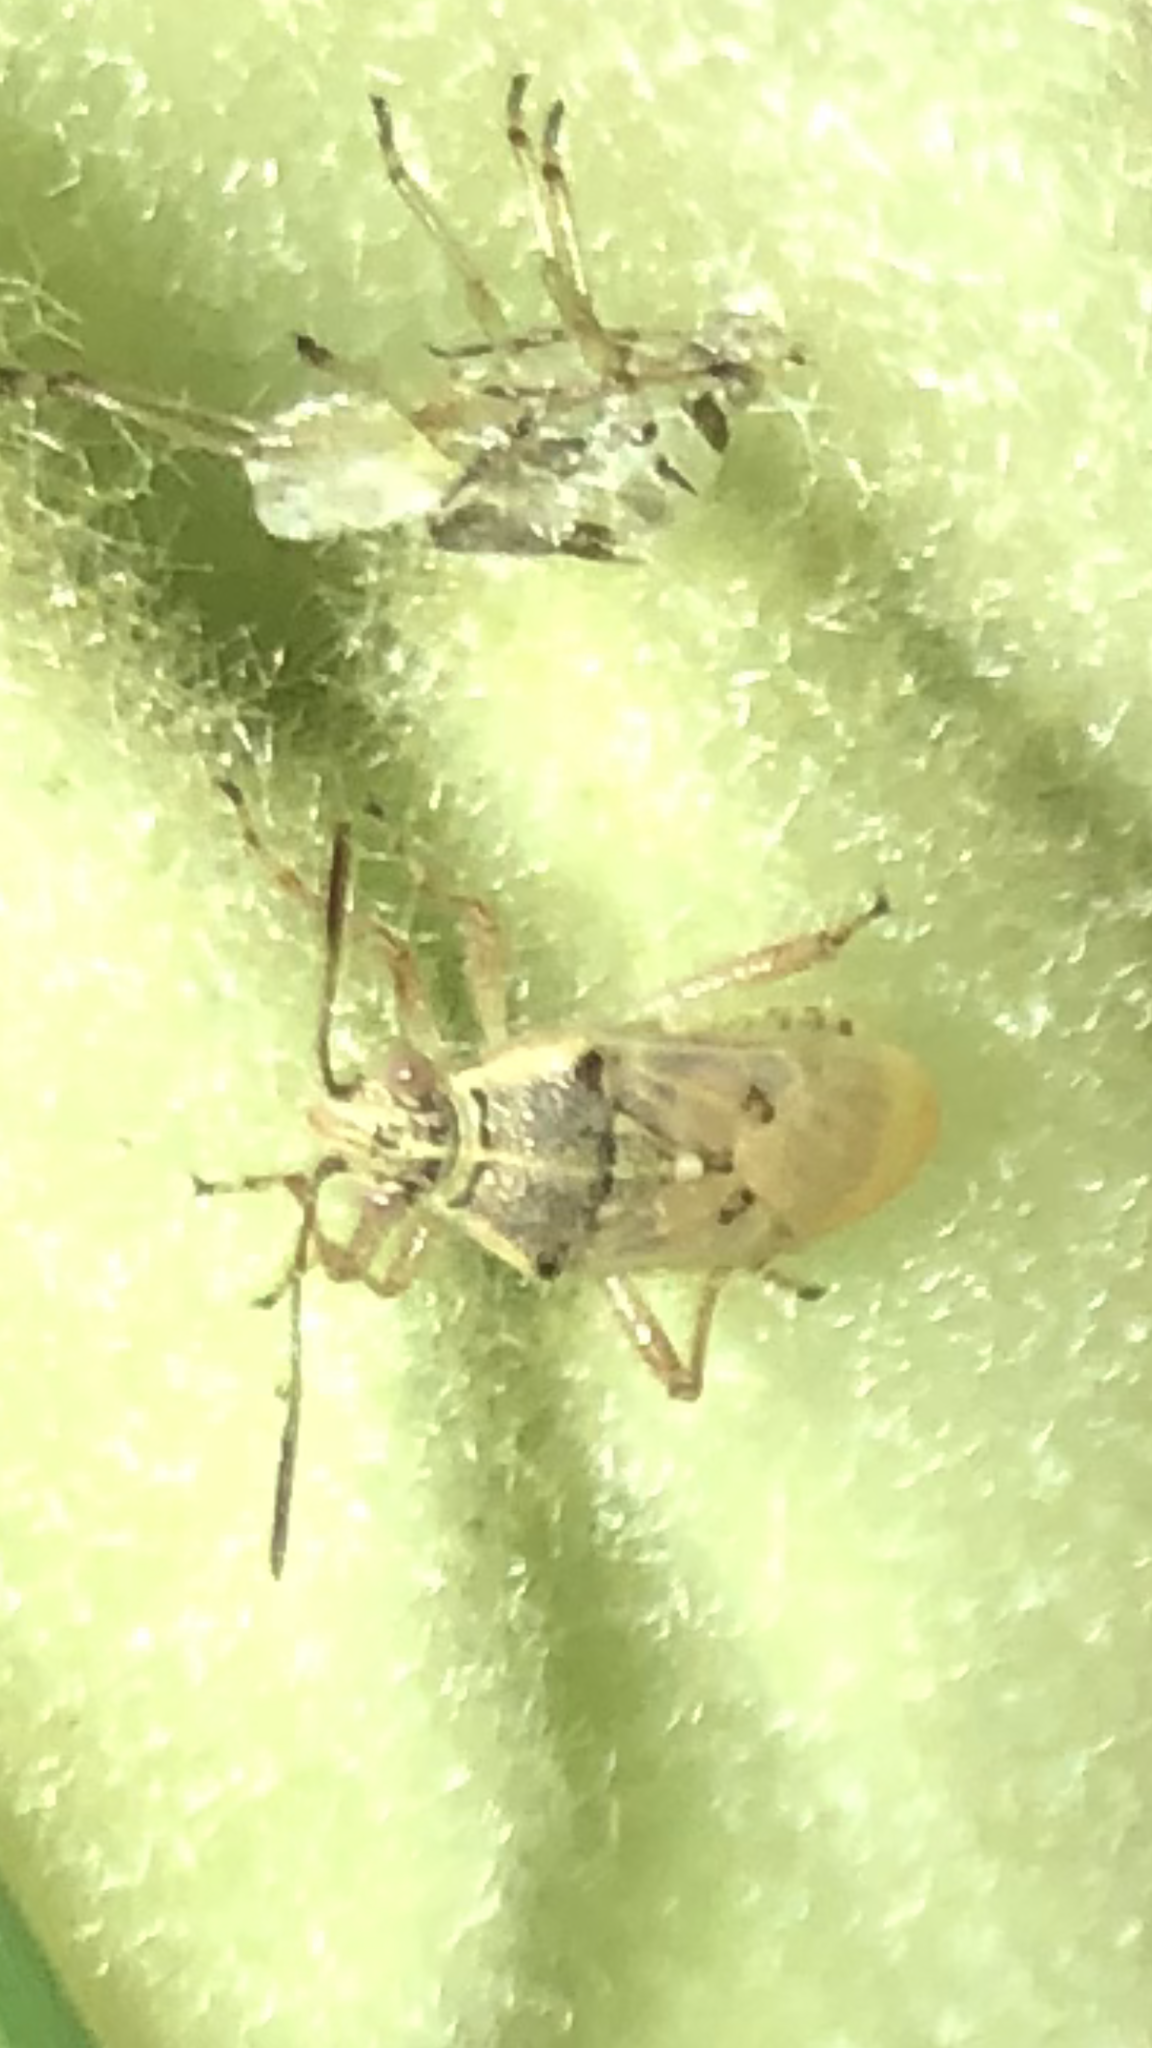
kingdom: Animalia
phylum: Arthropoda
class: Insecta
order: Hemiptera
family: Rhopalidae
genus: Liorhyssus
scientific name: Liorhyssus hyalinus
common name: Scentless plant bug
